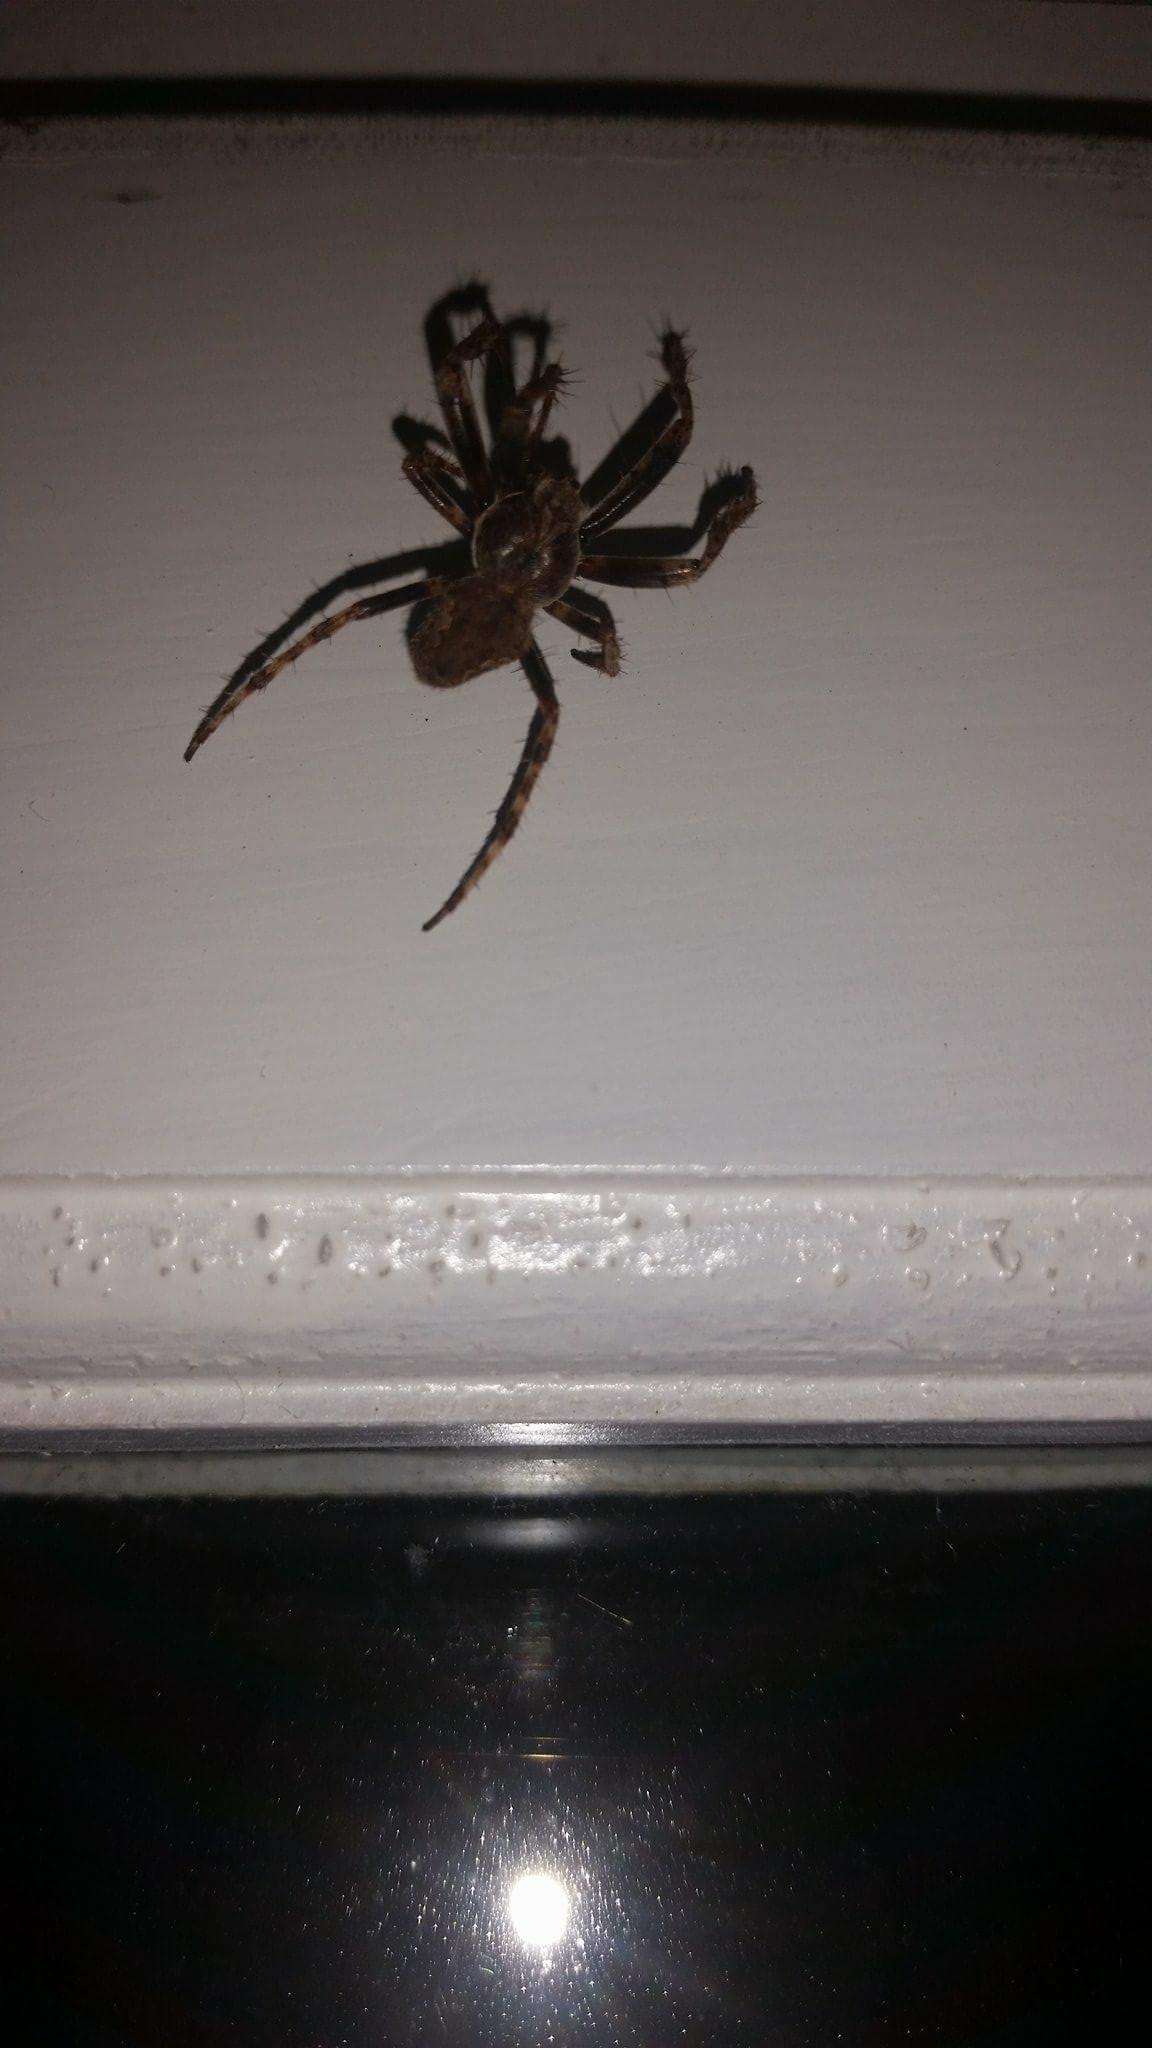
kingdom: Animalia
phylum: Arthropoda
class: Arachnida
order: Araneae
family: Araneidae
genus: Eriophora
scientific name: Eriophora pustulosa
